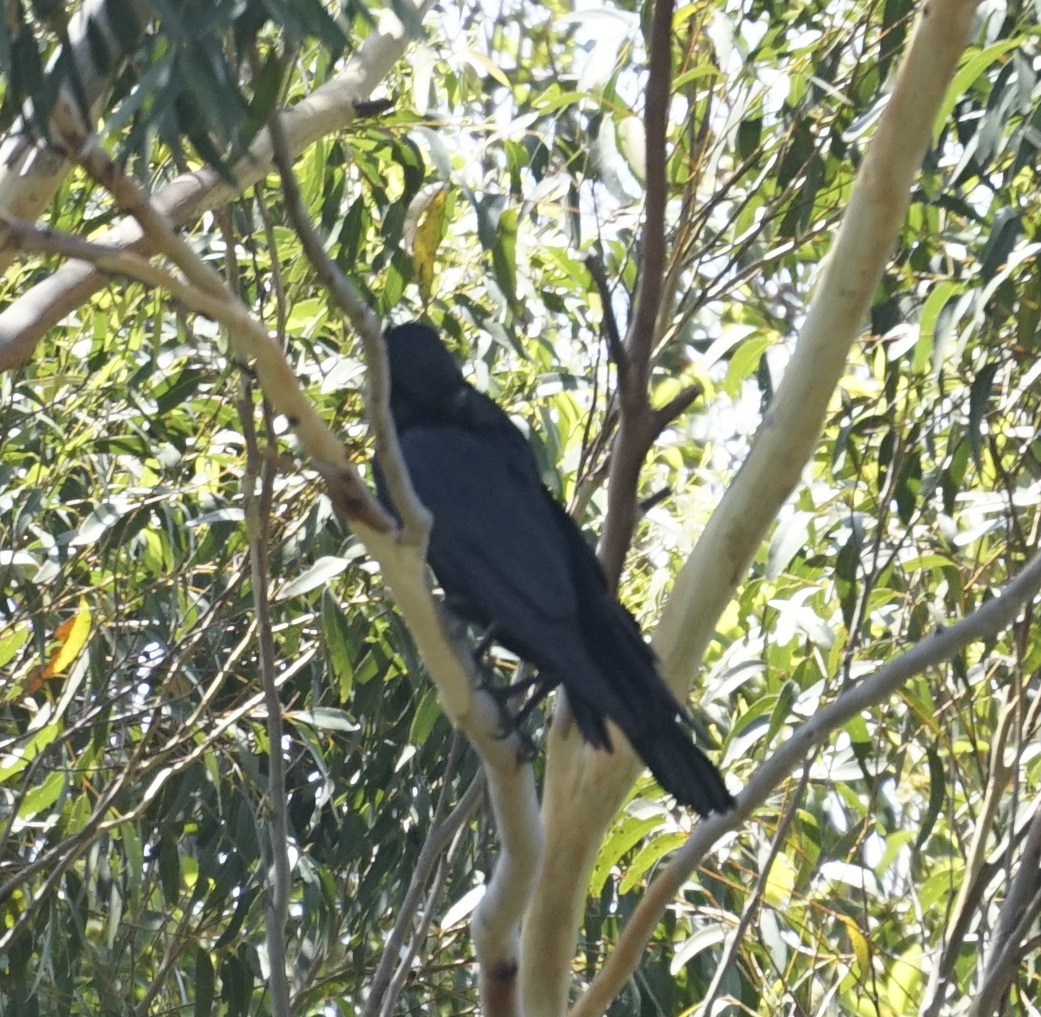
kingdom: Animalia
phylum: Chordata
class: Aves
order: Passeriformes
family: Corvidae
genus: Corvus
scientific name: Corvus orru
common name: Torresian crow
